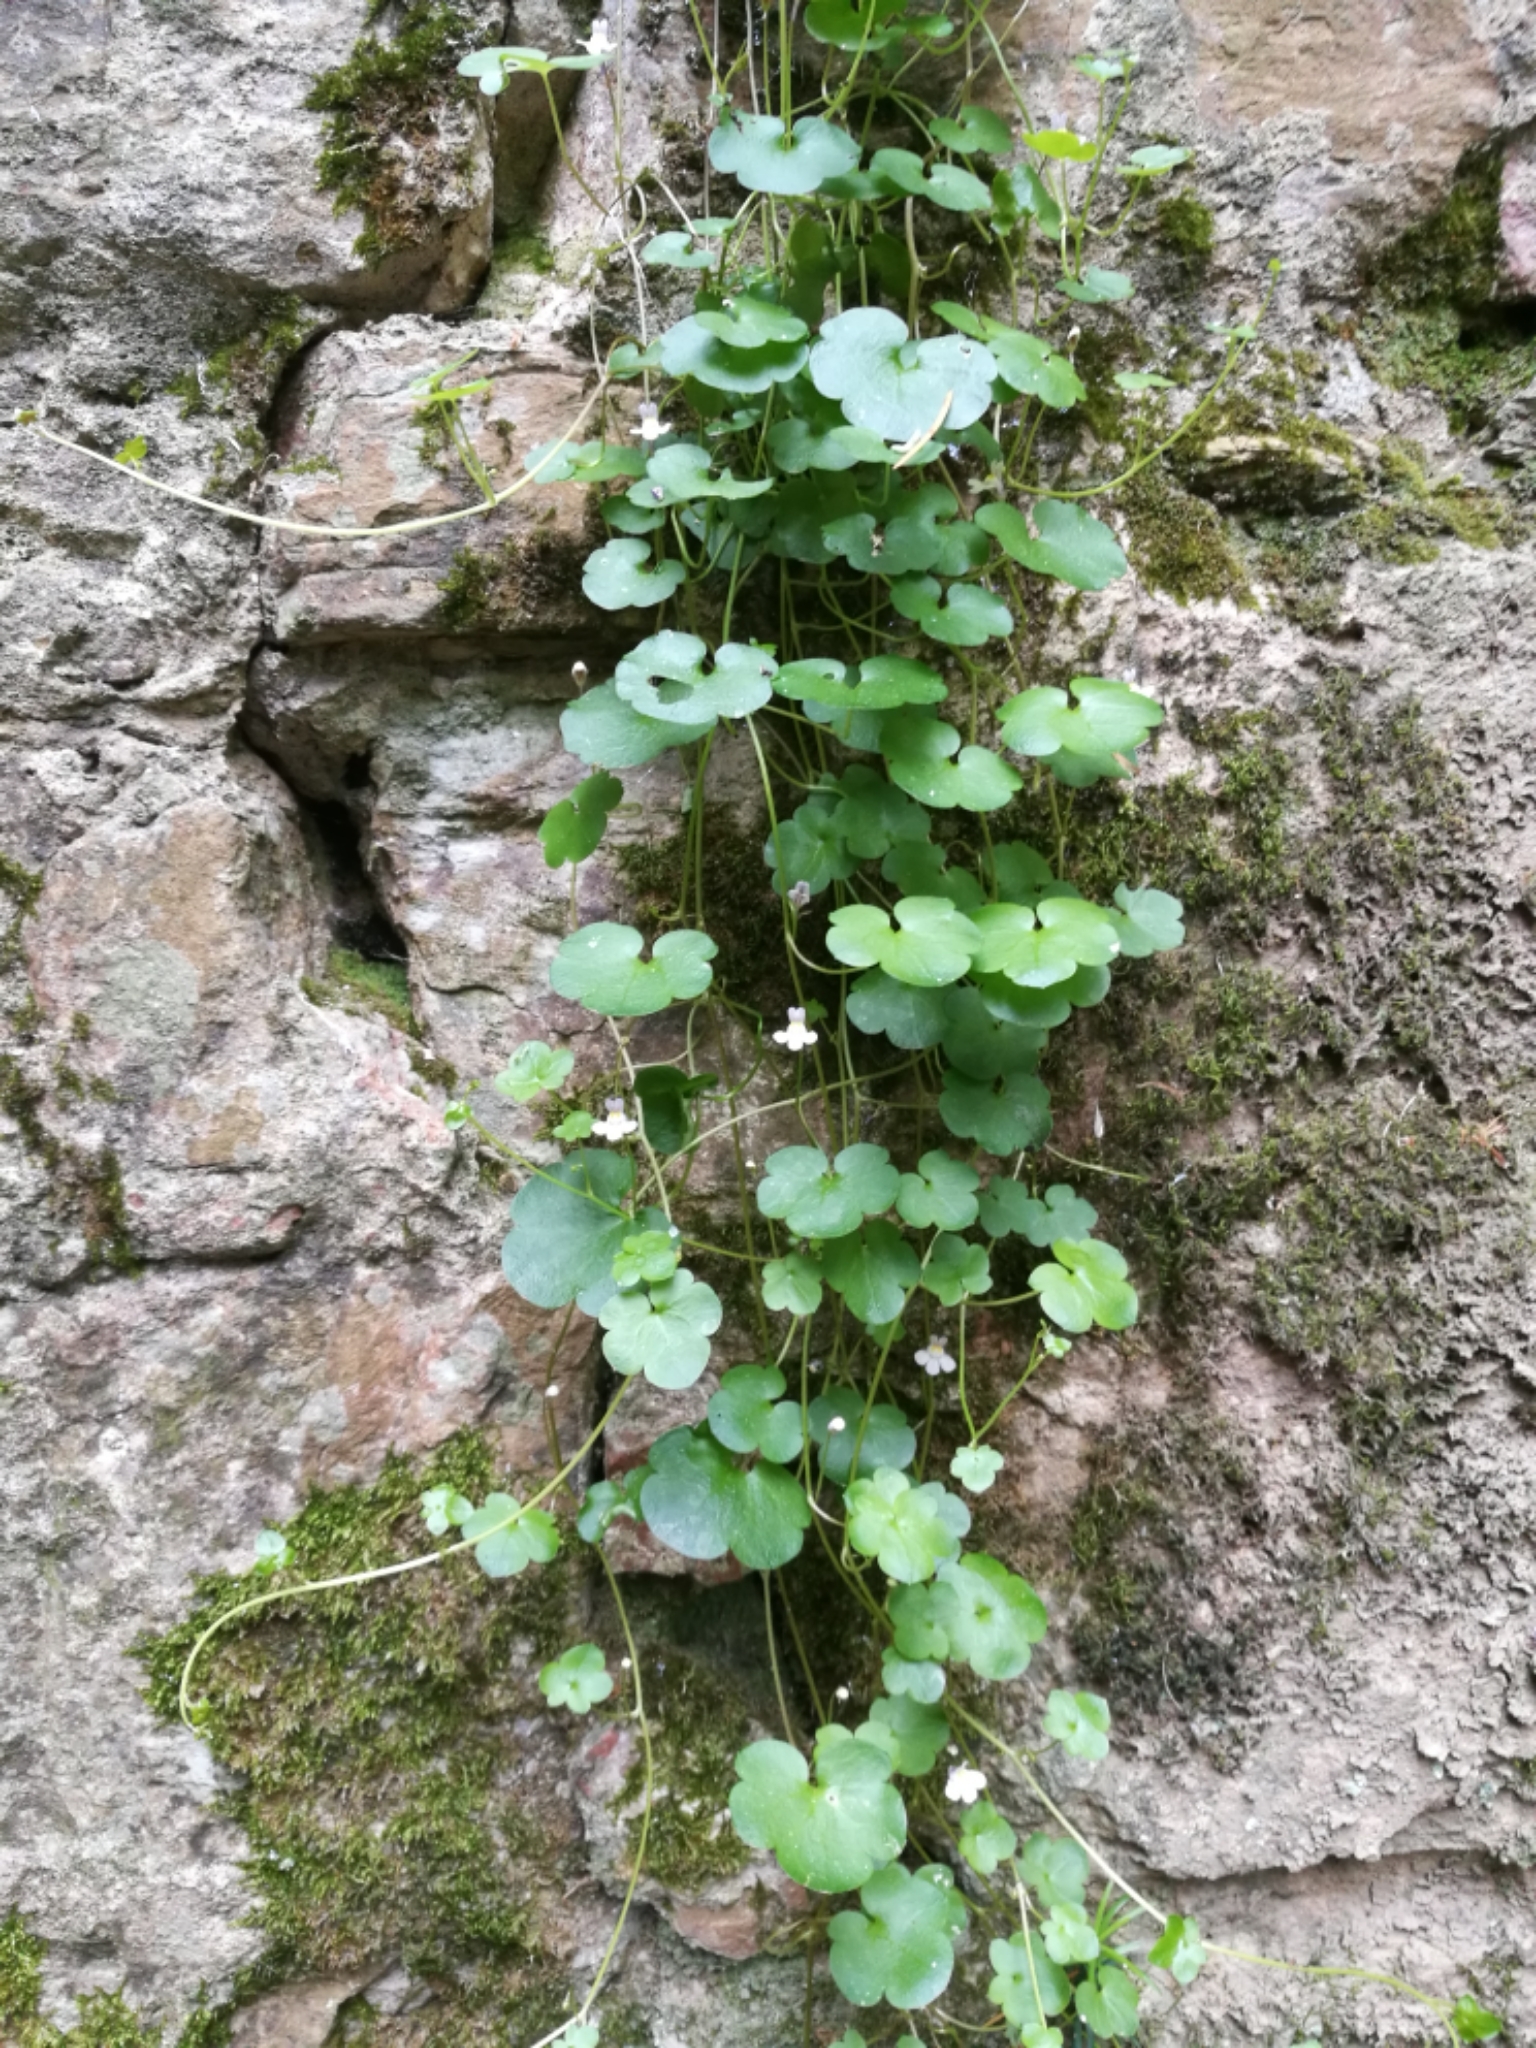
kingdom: Plantae
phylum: Tracheophyta
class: Magnoliopsida
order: Lamiales
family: Plantaginaceae
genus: Cymbalaria
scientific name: Cymbalaria muralis
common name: Ivy-leaved toadflax
